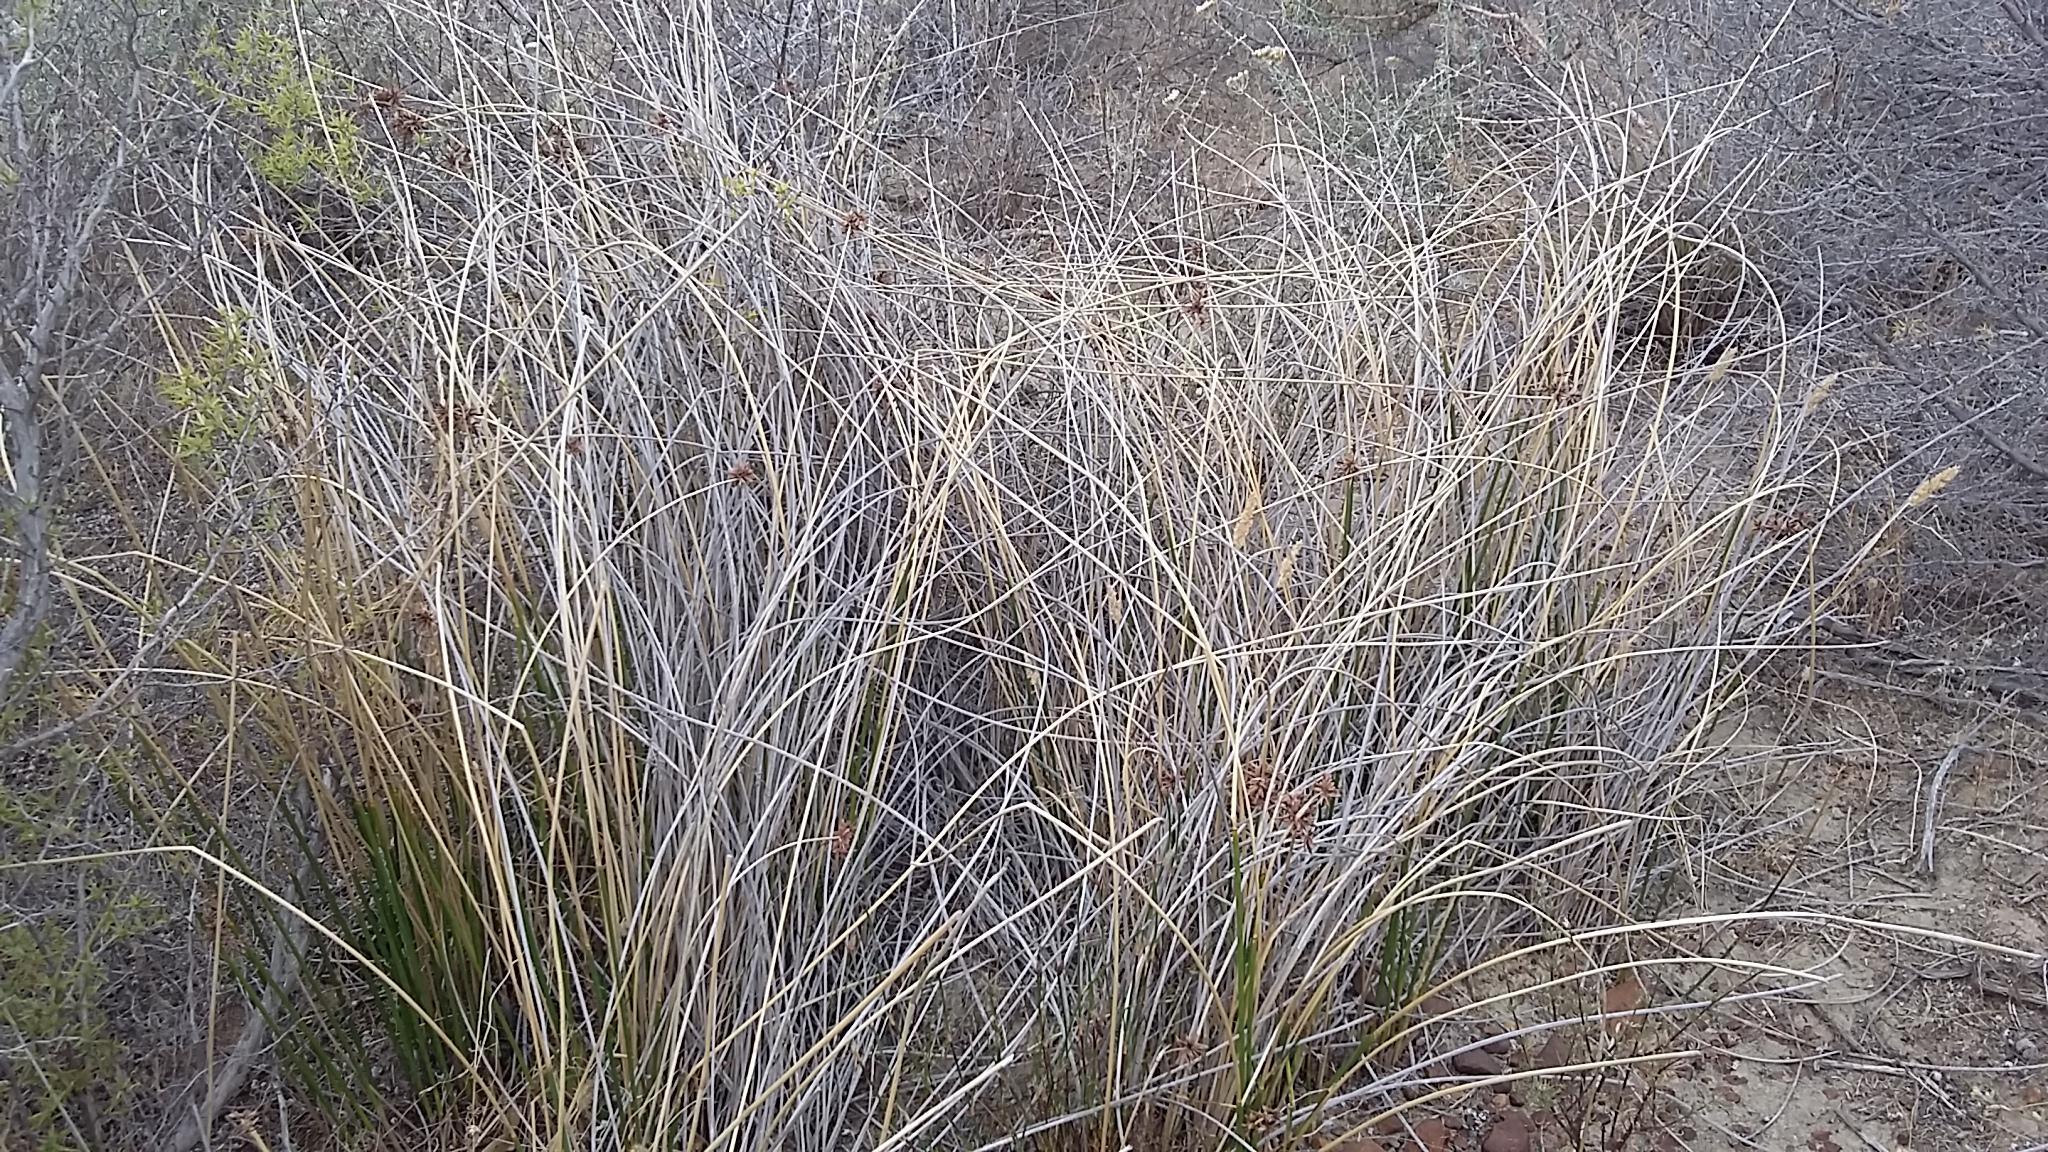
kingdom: Plantae
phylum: Tracheophyta
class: Liliopsida
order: Poales
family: Cyperaceae
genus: Cyperus
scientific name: Cyperus marginatus
